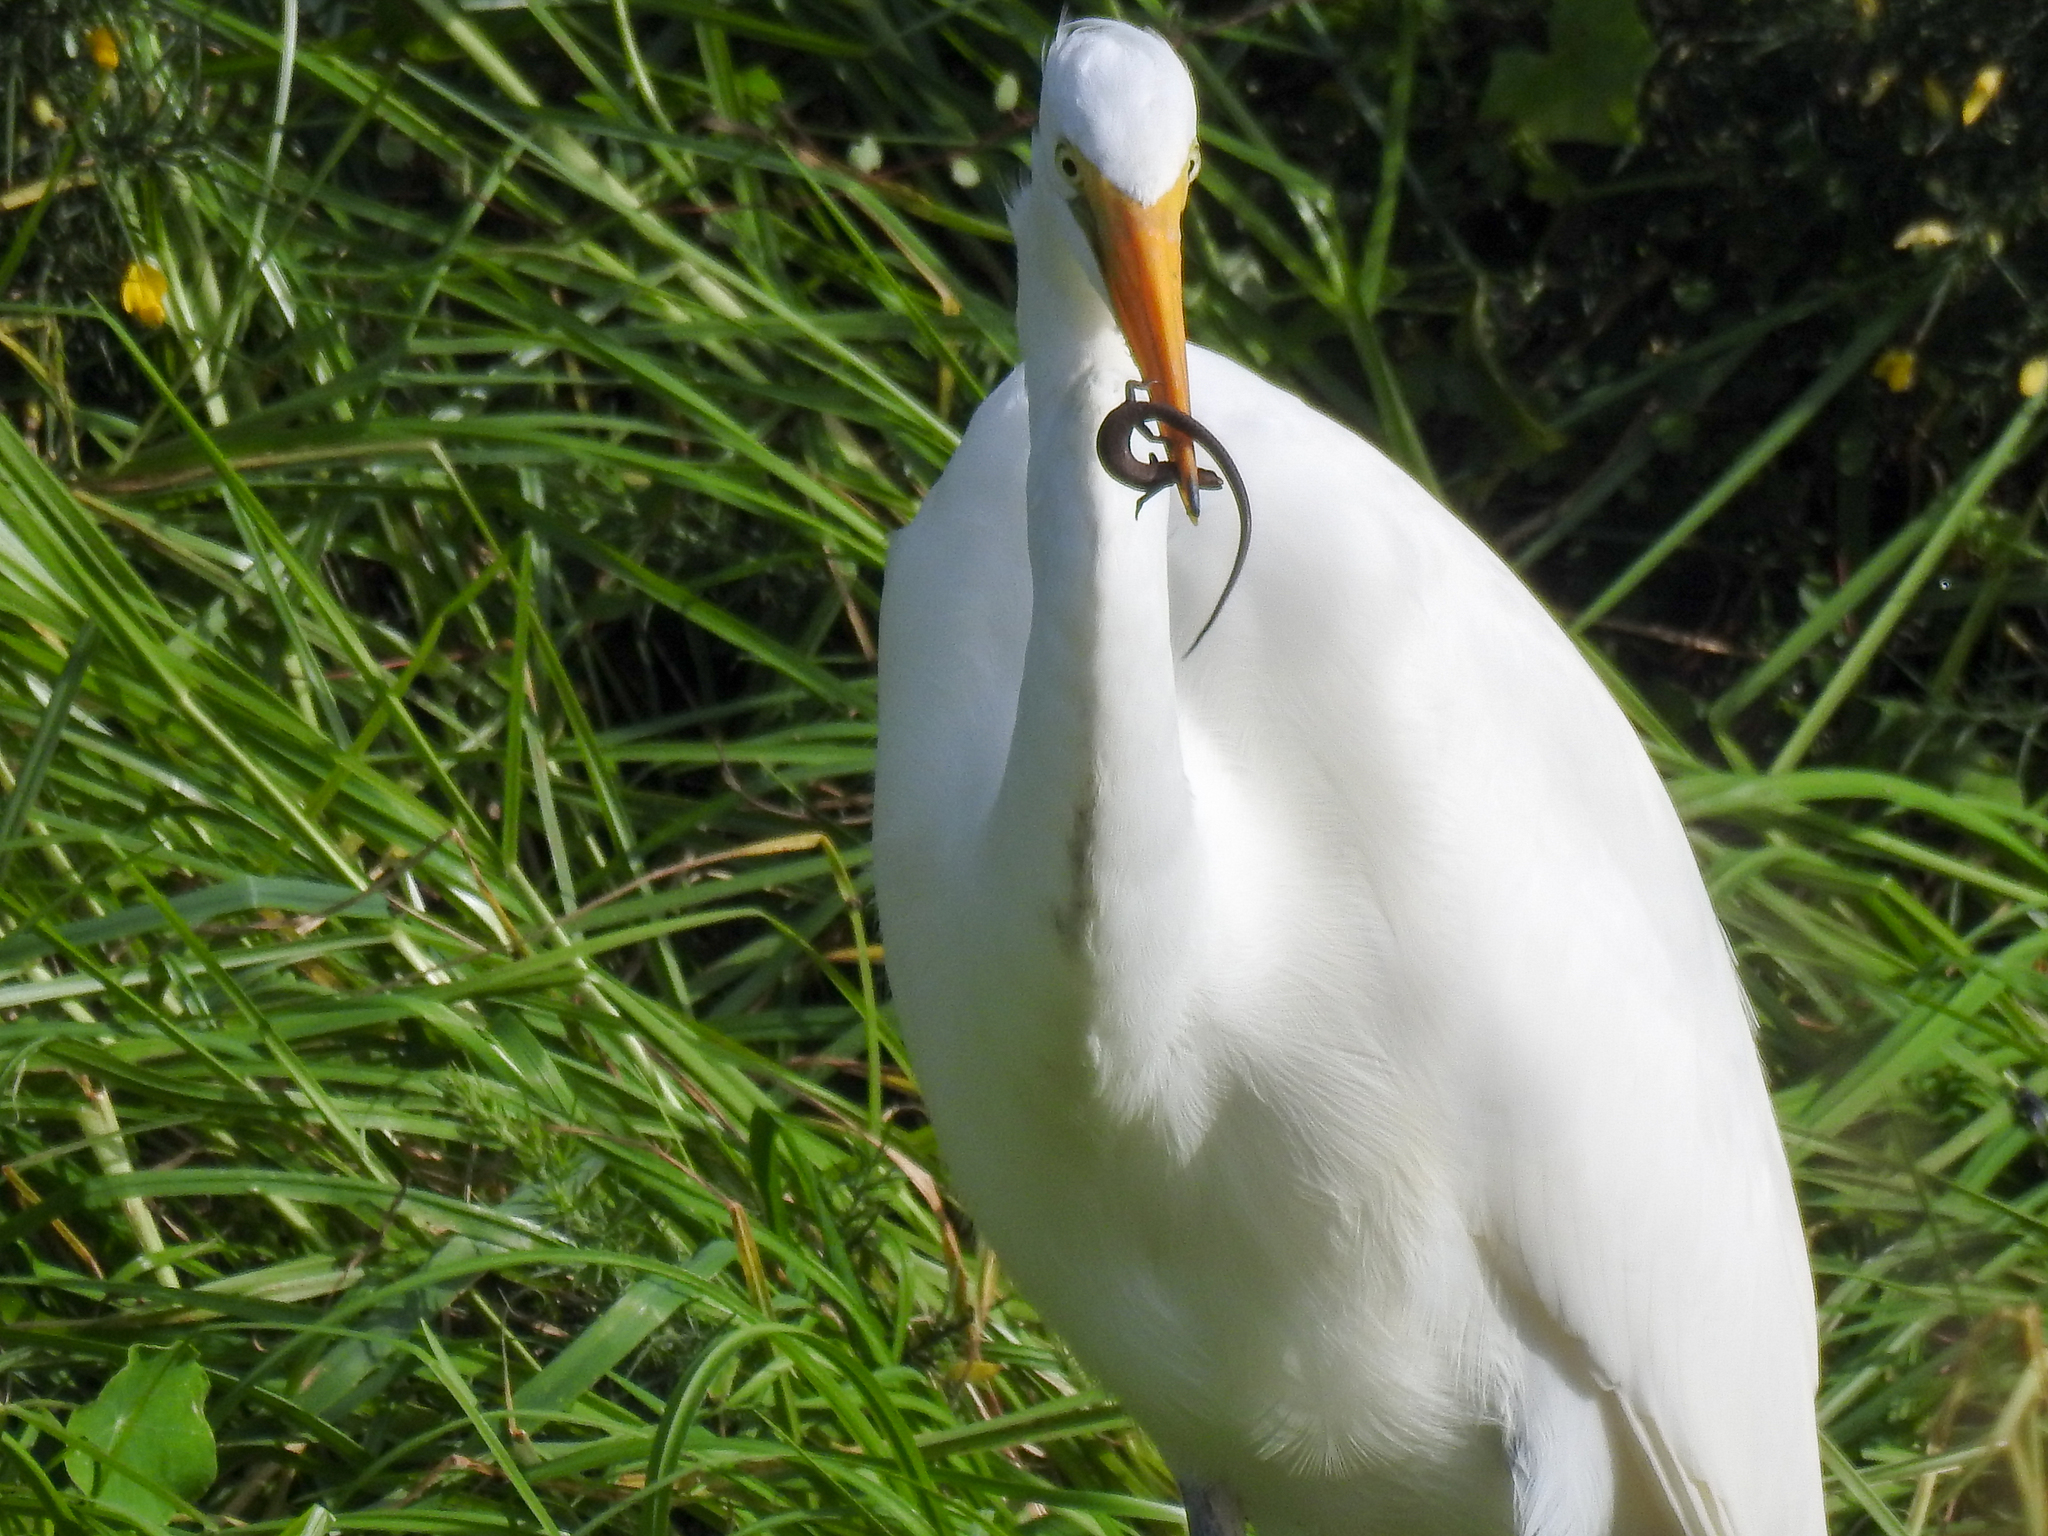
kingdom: Animalia
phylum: Chordata
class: Aves
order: Pelecaniformes
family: Ardeidae
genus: Ardea
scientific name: Ardea modesta
